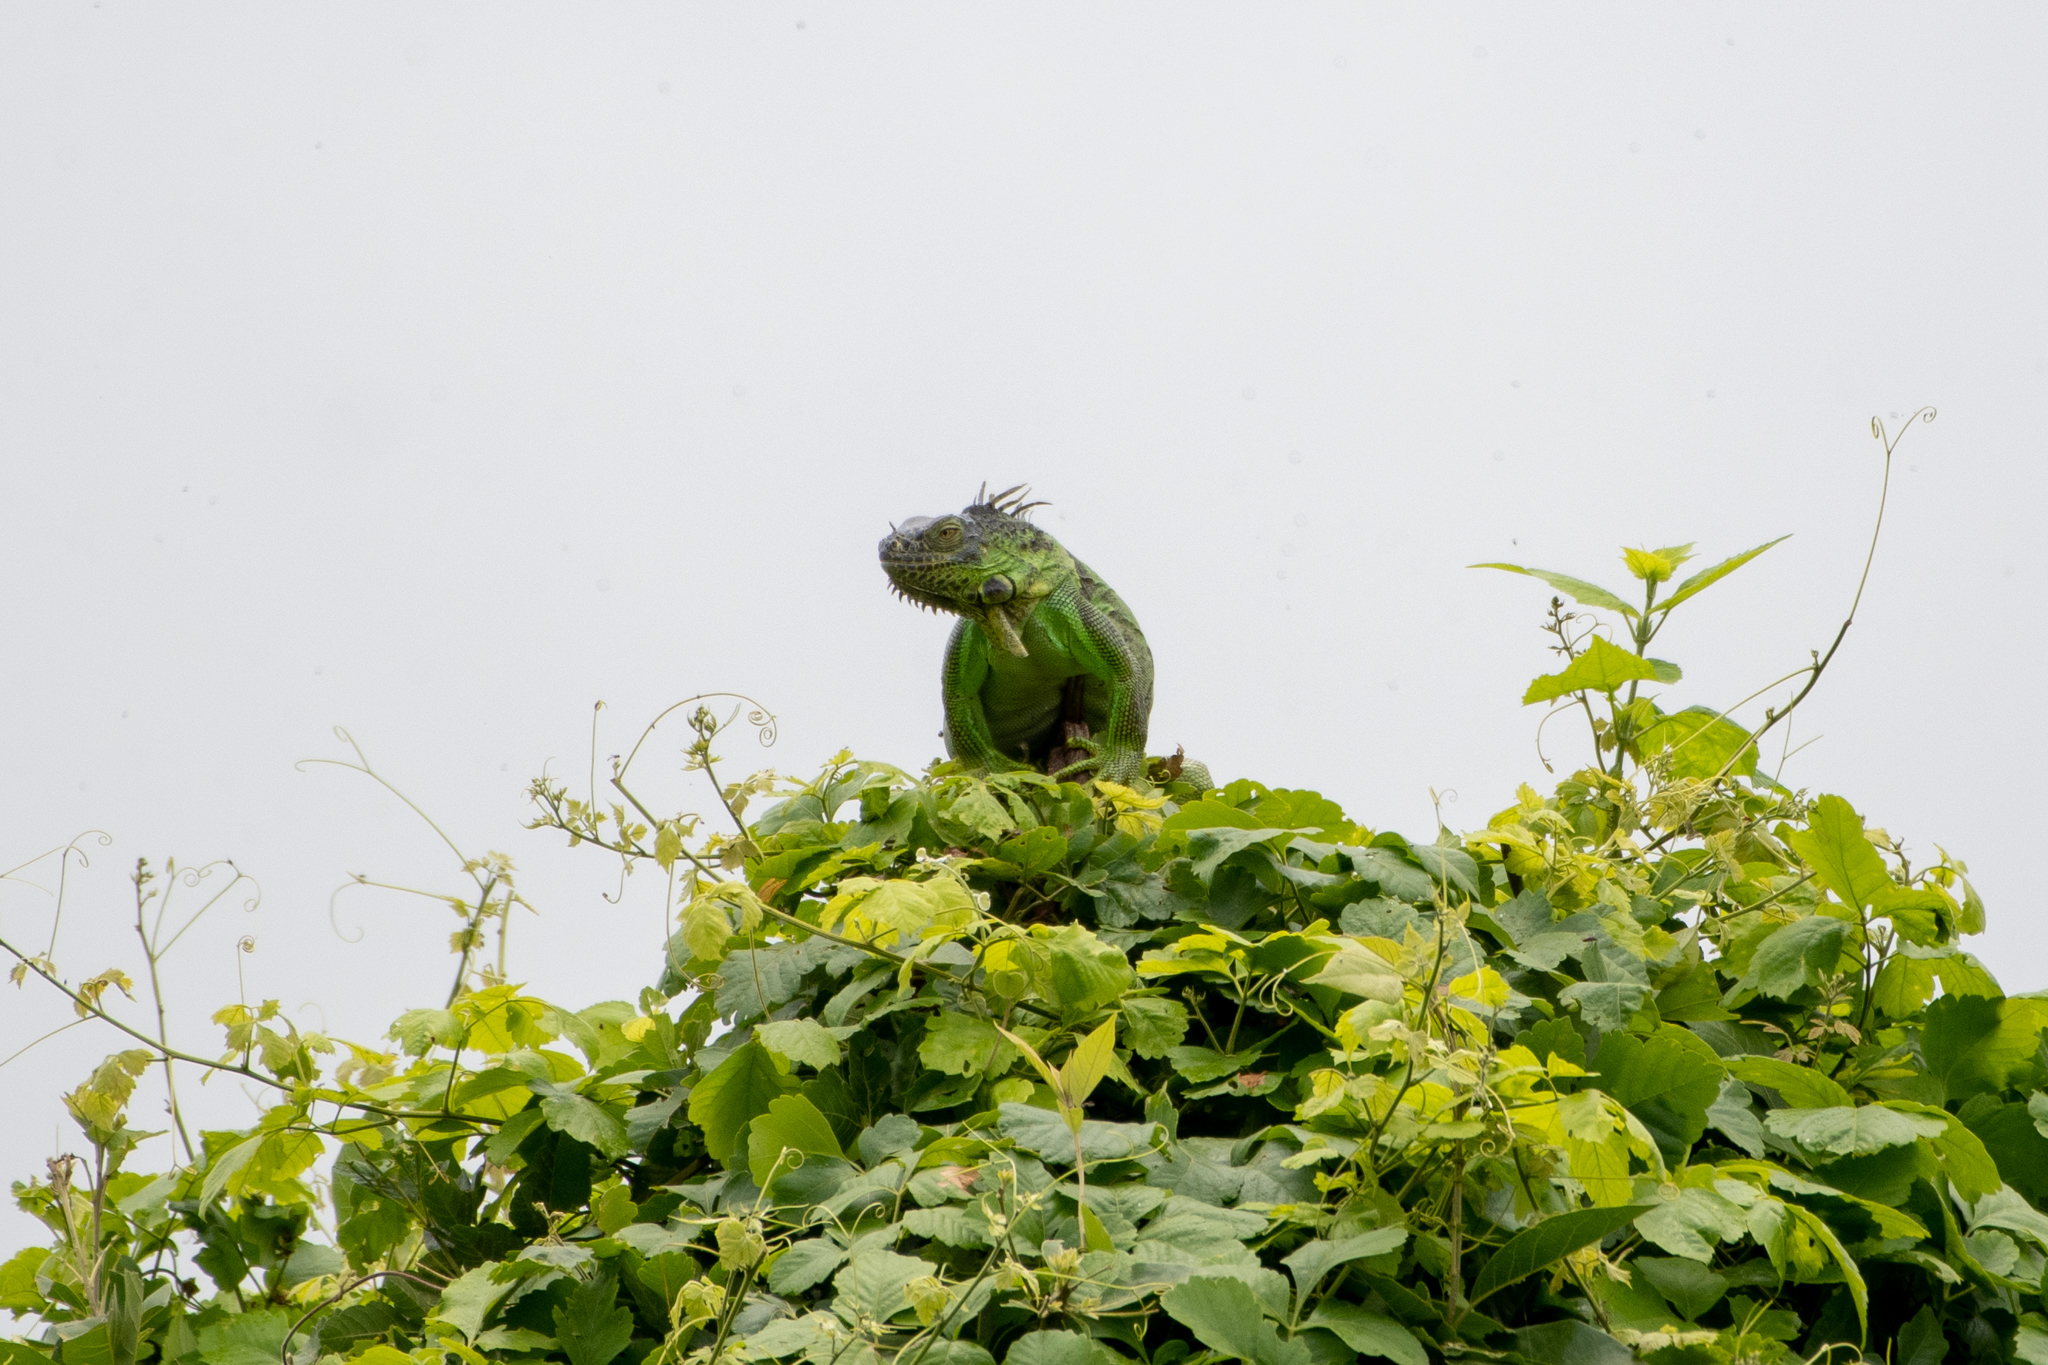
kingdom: Animalia
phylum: Chordata
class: Squamata
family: Iguanidae
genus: Iguana
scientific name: Iguana iguana
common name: Green iguana
